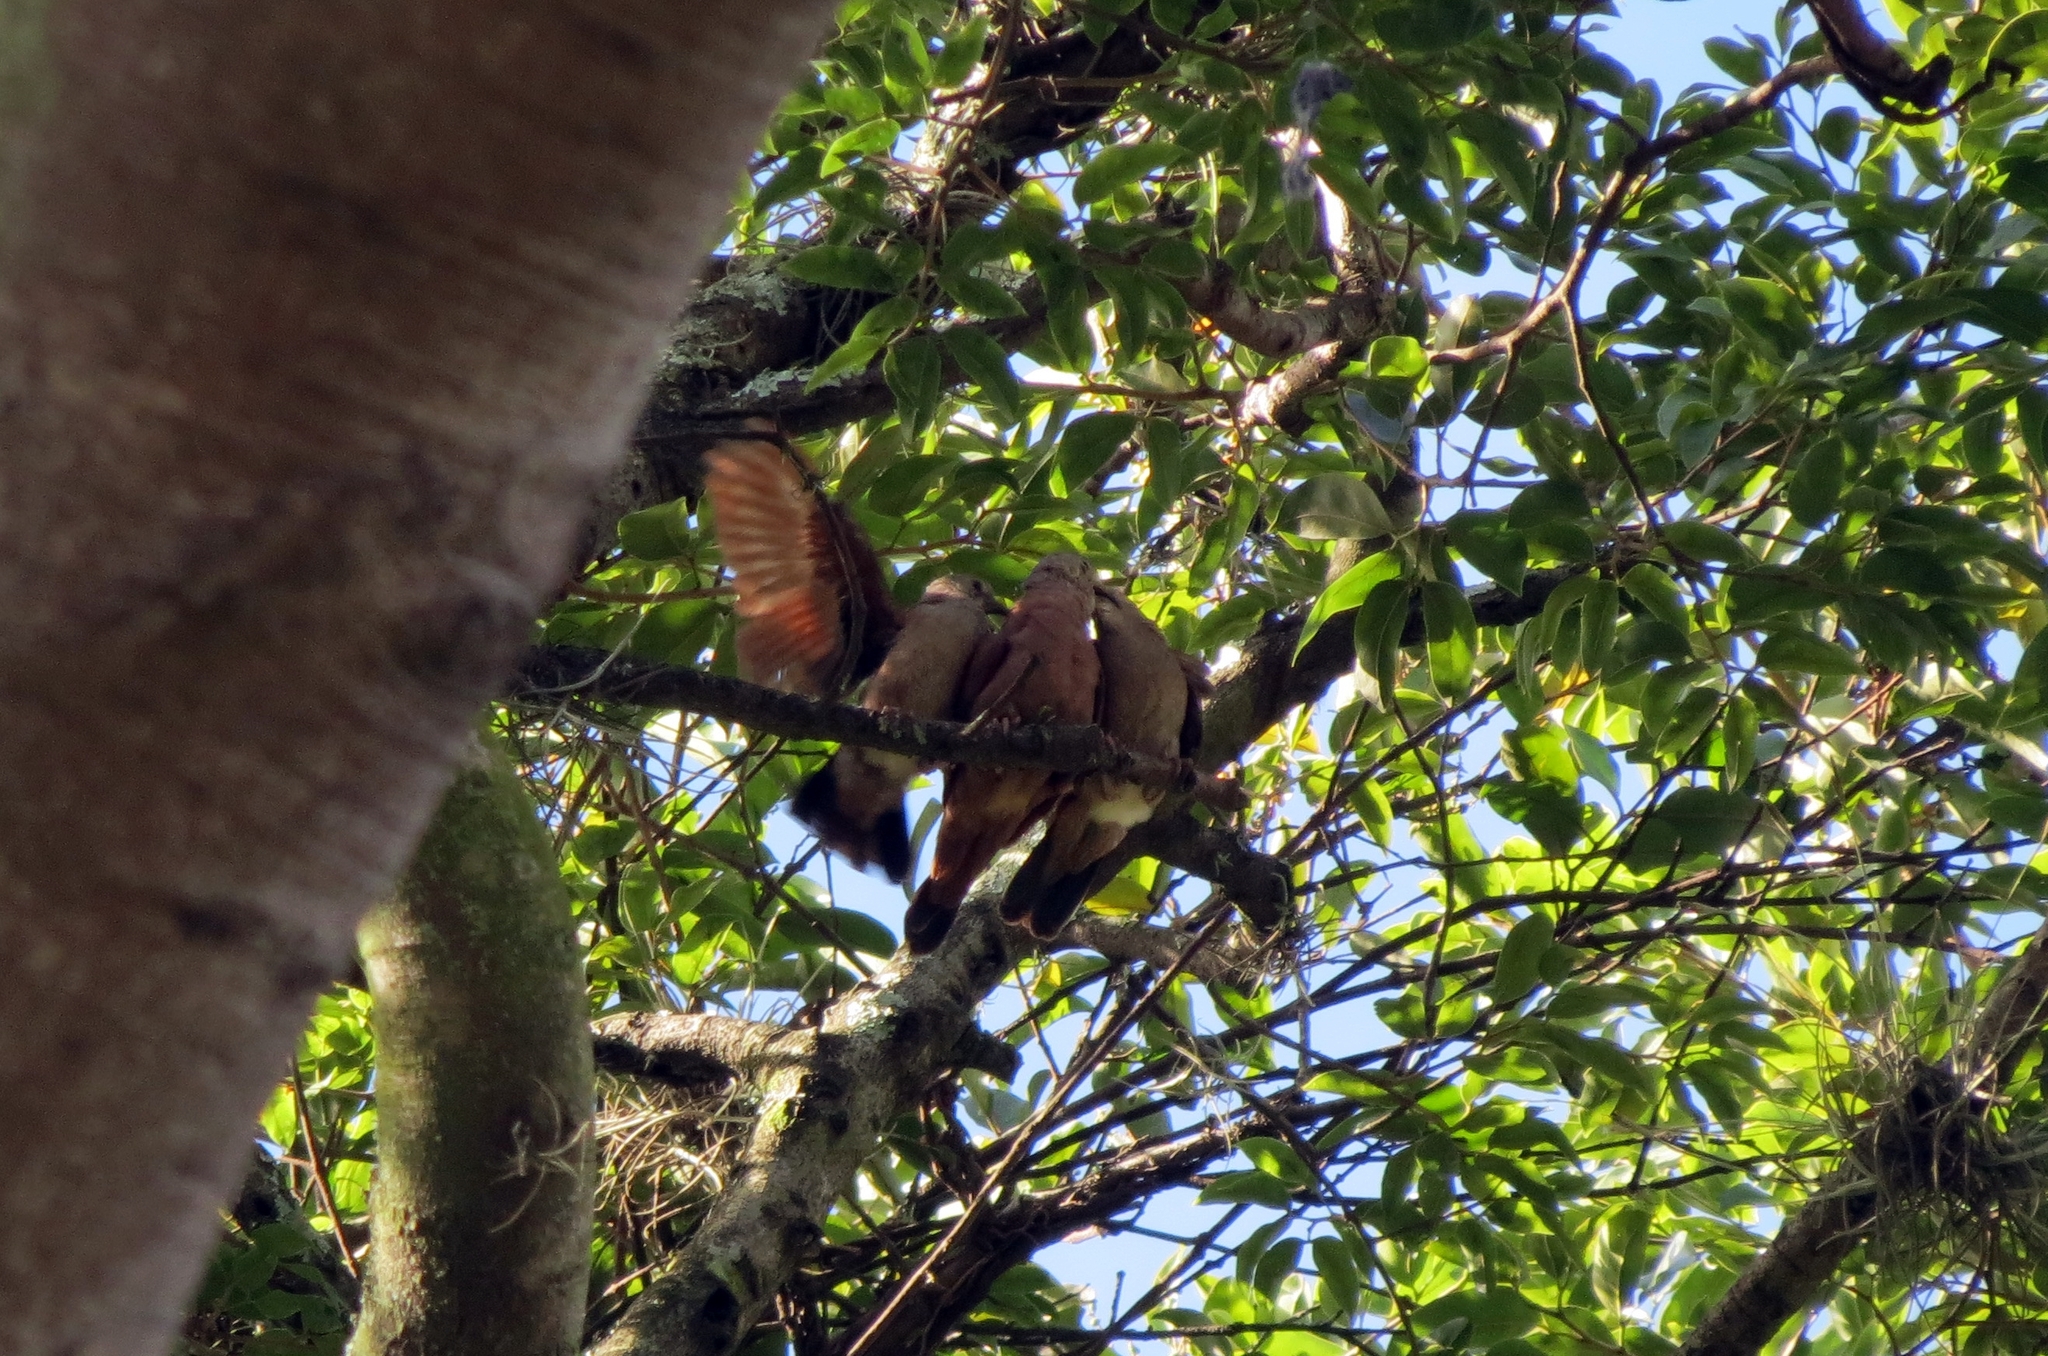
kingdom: Animalia
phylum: Chordata
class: Aves
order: Columbiformes
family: Columbidae
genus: Zenaida
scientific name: Zenaida auriculata
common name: Eared dove
